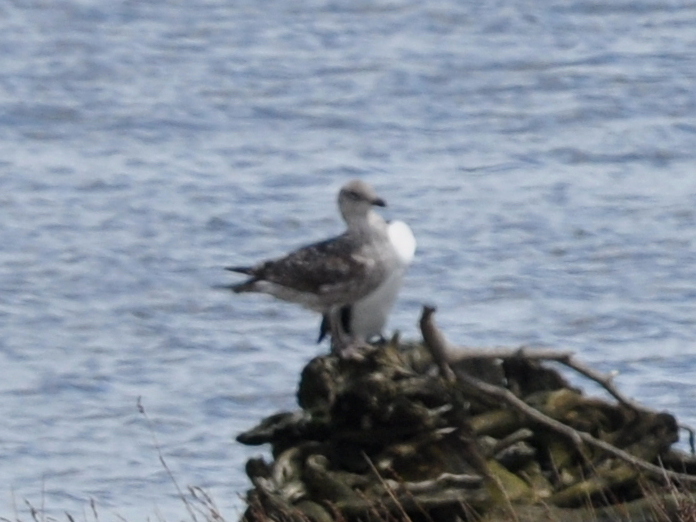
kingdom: Animalia
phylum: Chordata
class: Aves
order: Charadriiformes
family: Laridae
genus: Larus
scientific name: Larus dominicanus
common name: Kelp gull
